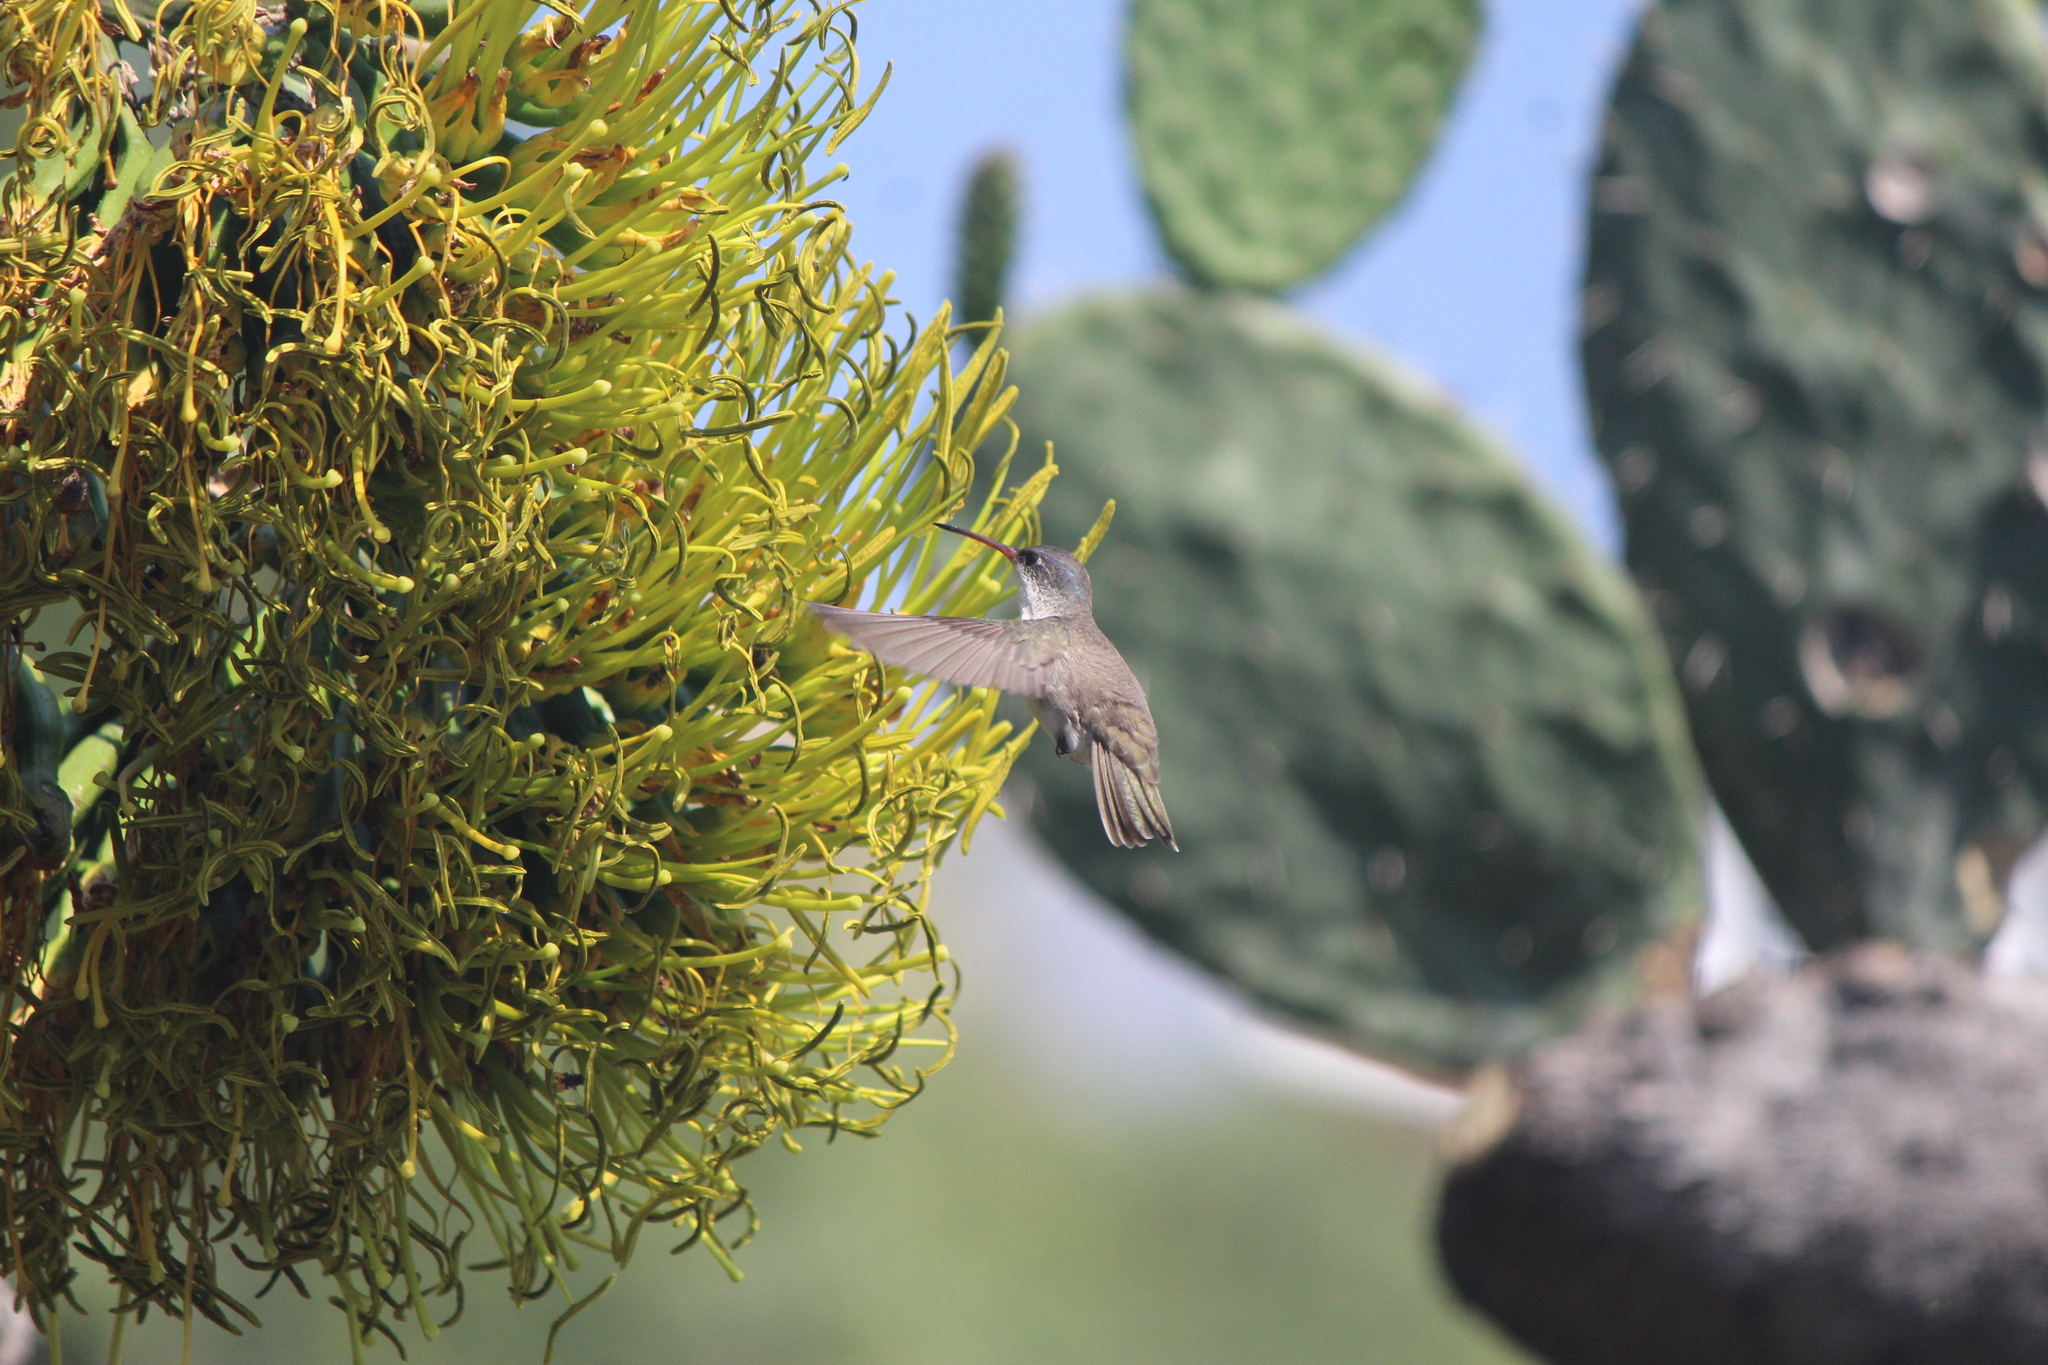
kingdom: Animalia
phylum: Chordata
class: Aves
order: Apodiformes
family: Trochilidae
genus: Leucolia
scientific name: Leucolia violiceps
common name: Violet-crowned hummingbird
